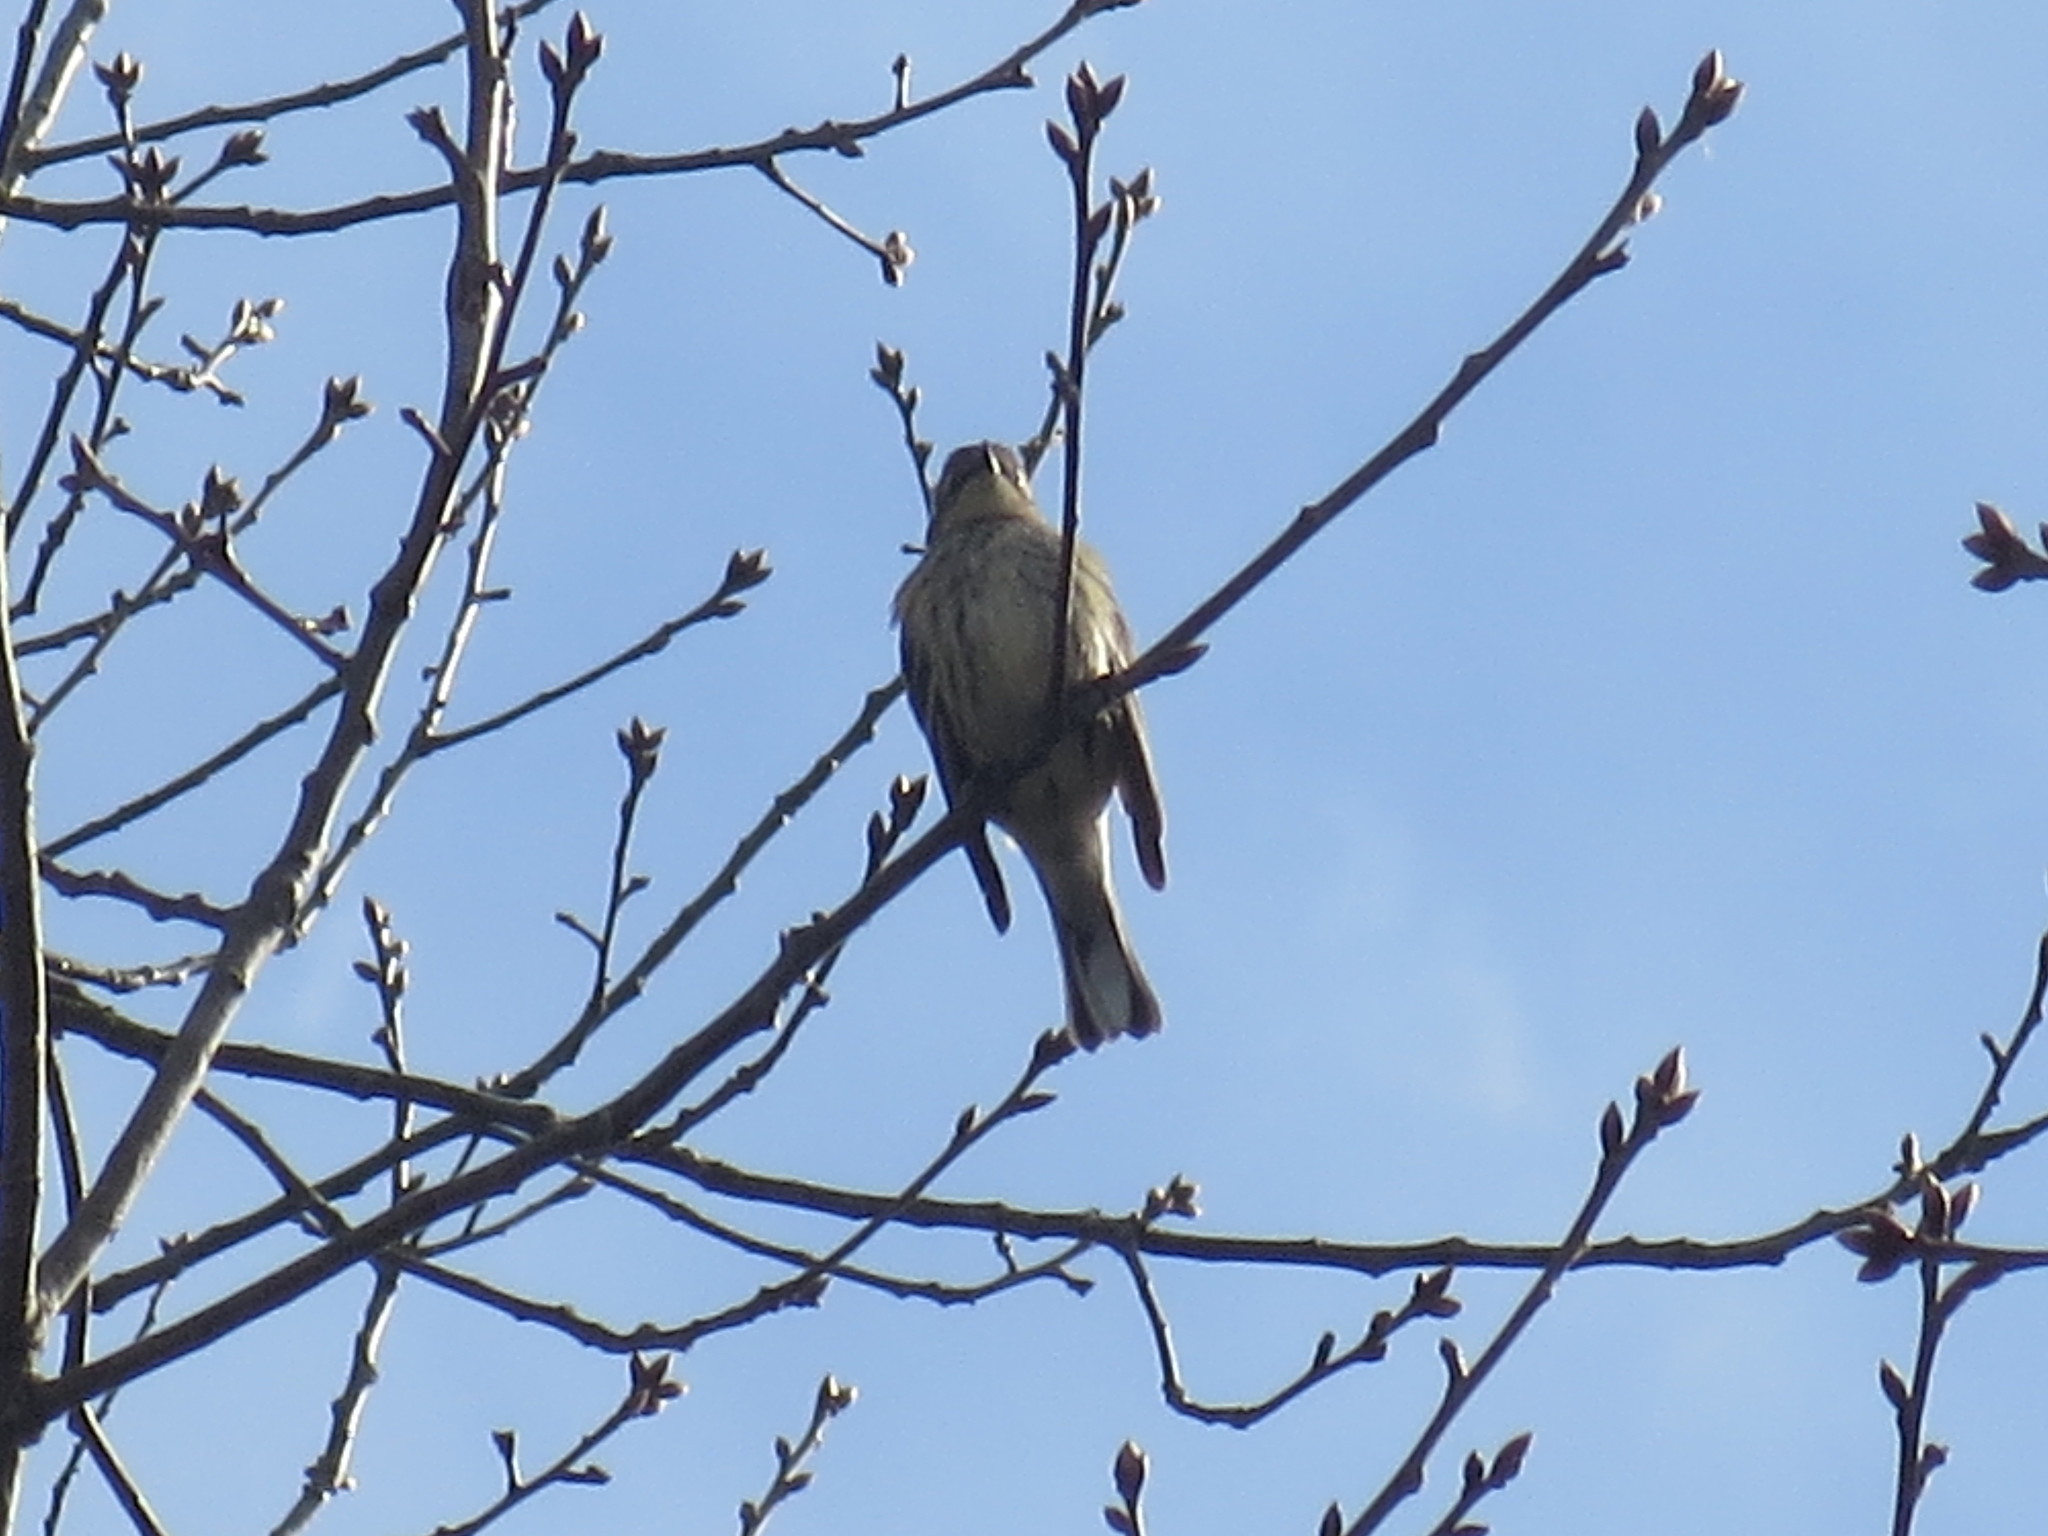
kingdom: Animalia
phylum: Chordata
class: Aves
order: Passeriformes
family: Parulidae
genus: Setophaga
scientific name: Setophaga coronata
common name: Myrtle warbler
